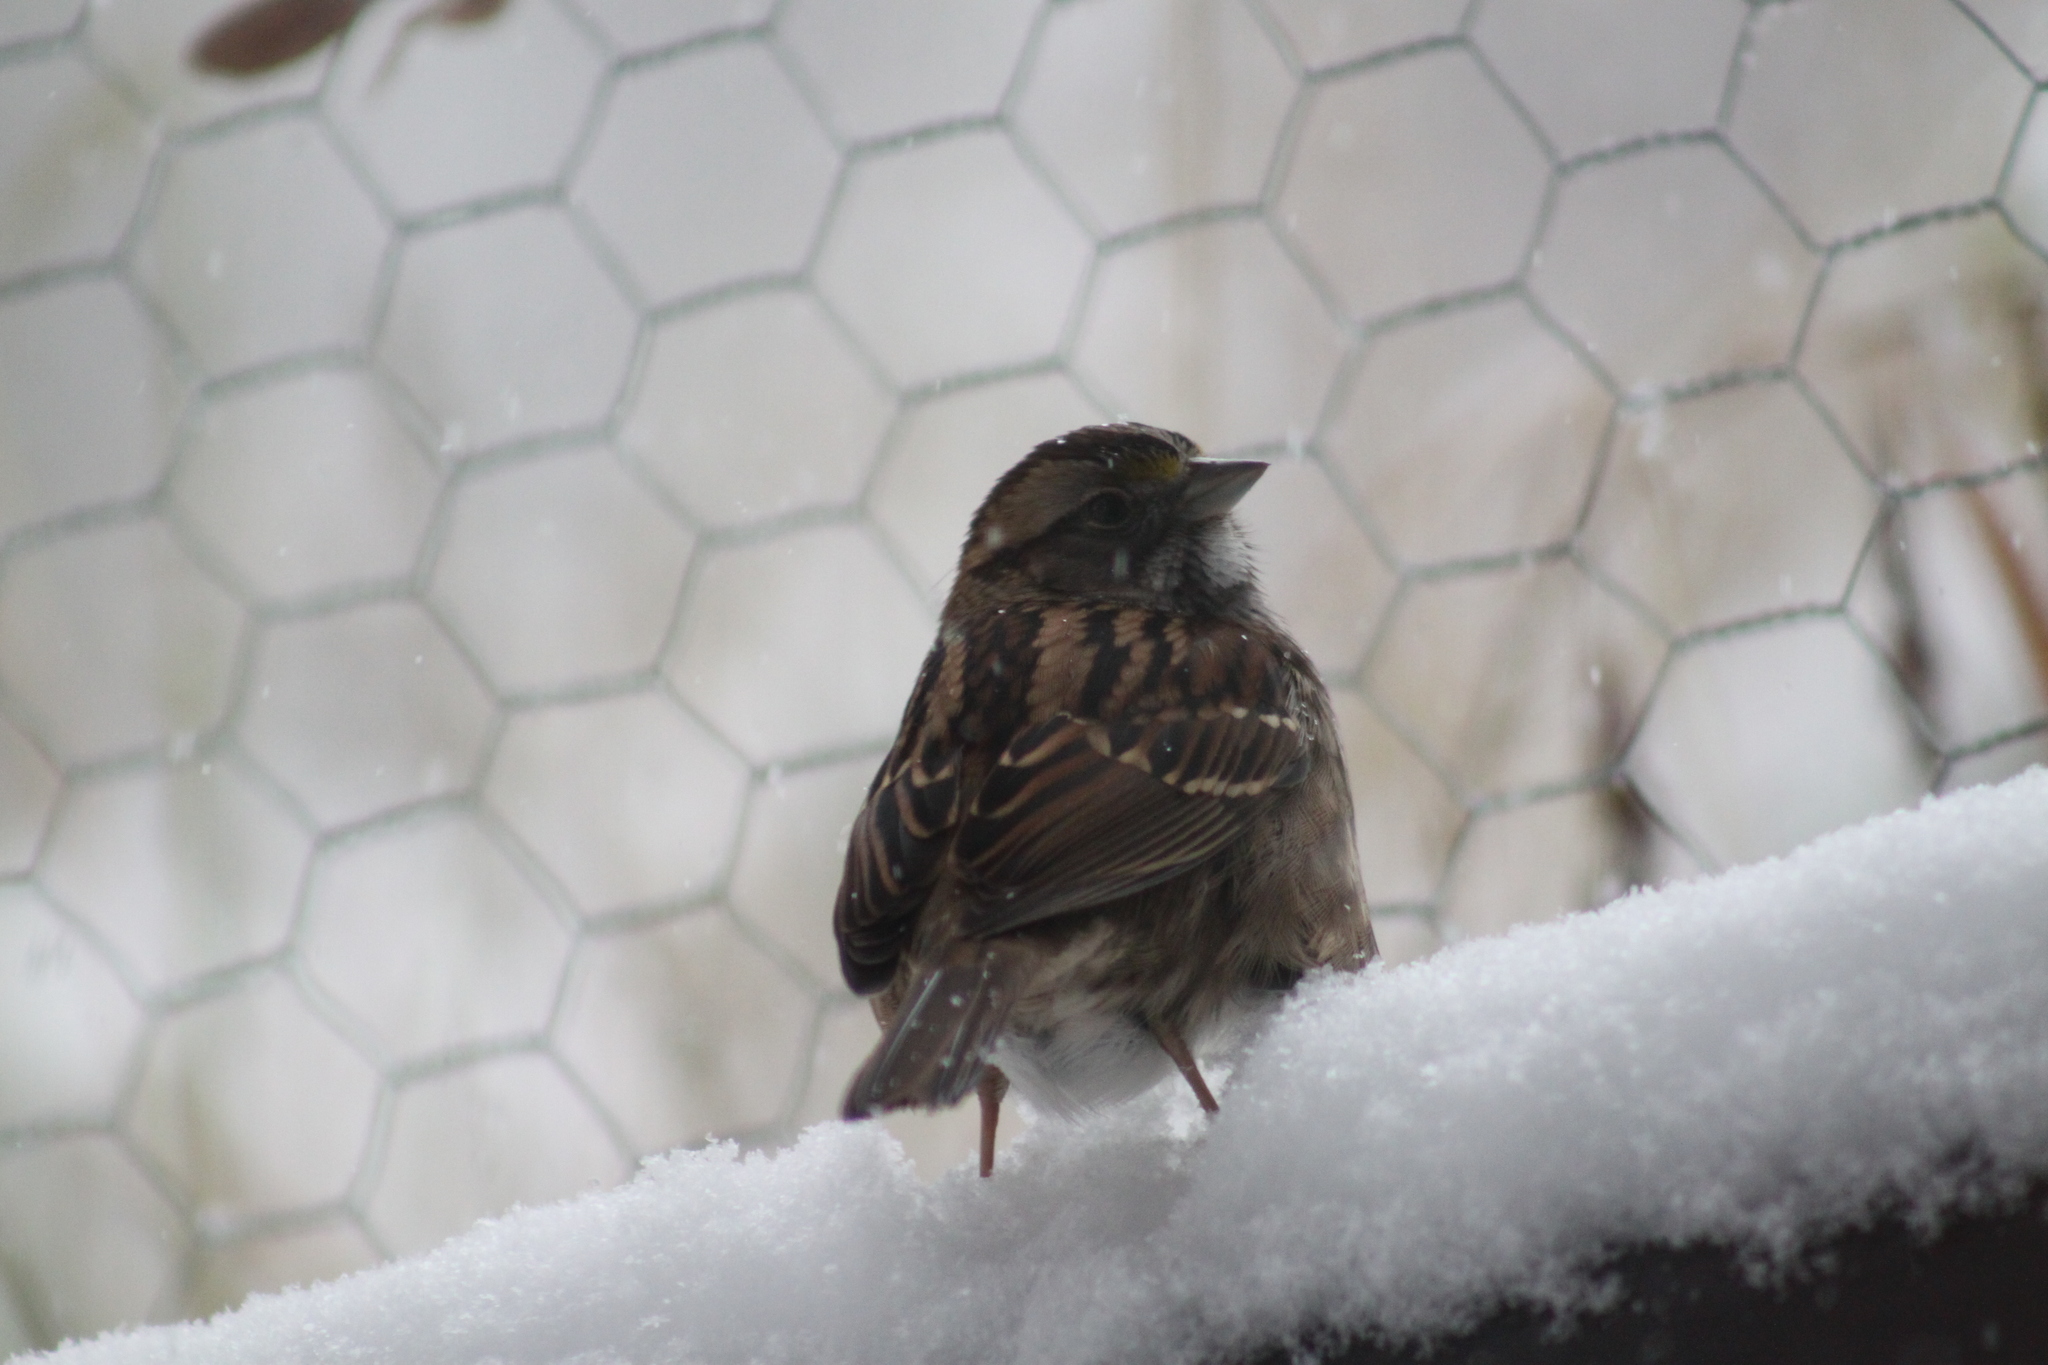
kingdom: Animalia
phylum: Chordata
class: Aves
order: Passeriformes
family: Passerellidae
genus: Zonotrichia
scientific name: Zonotrichia albicollis
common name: White-throated sparrow
